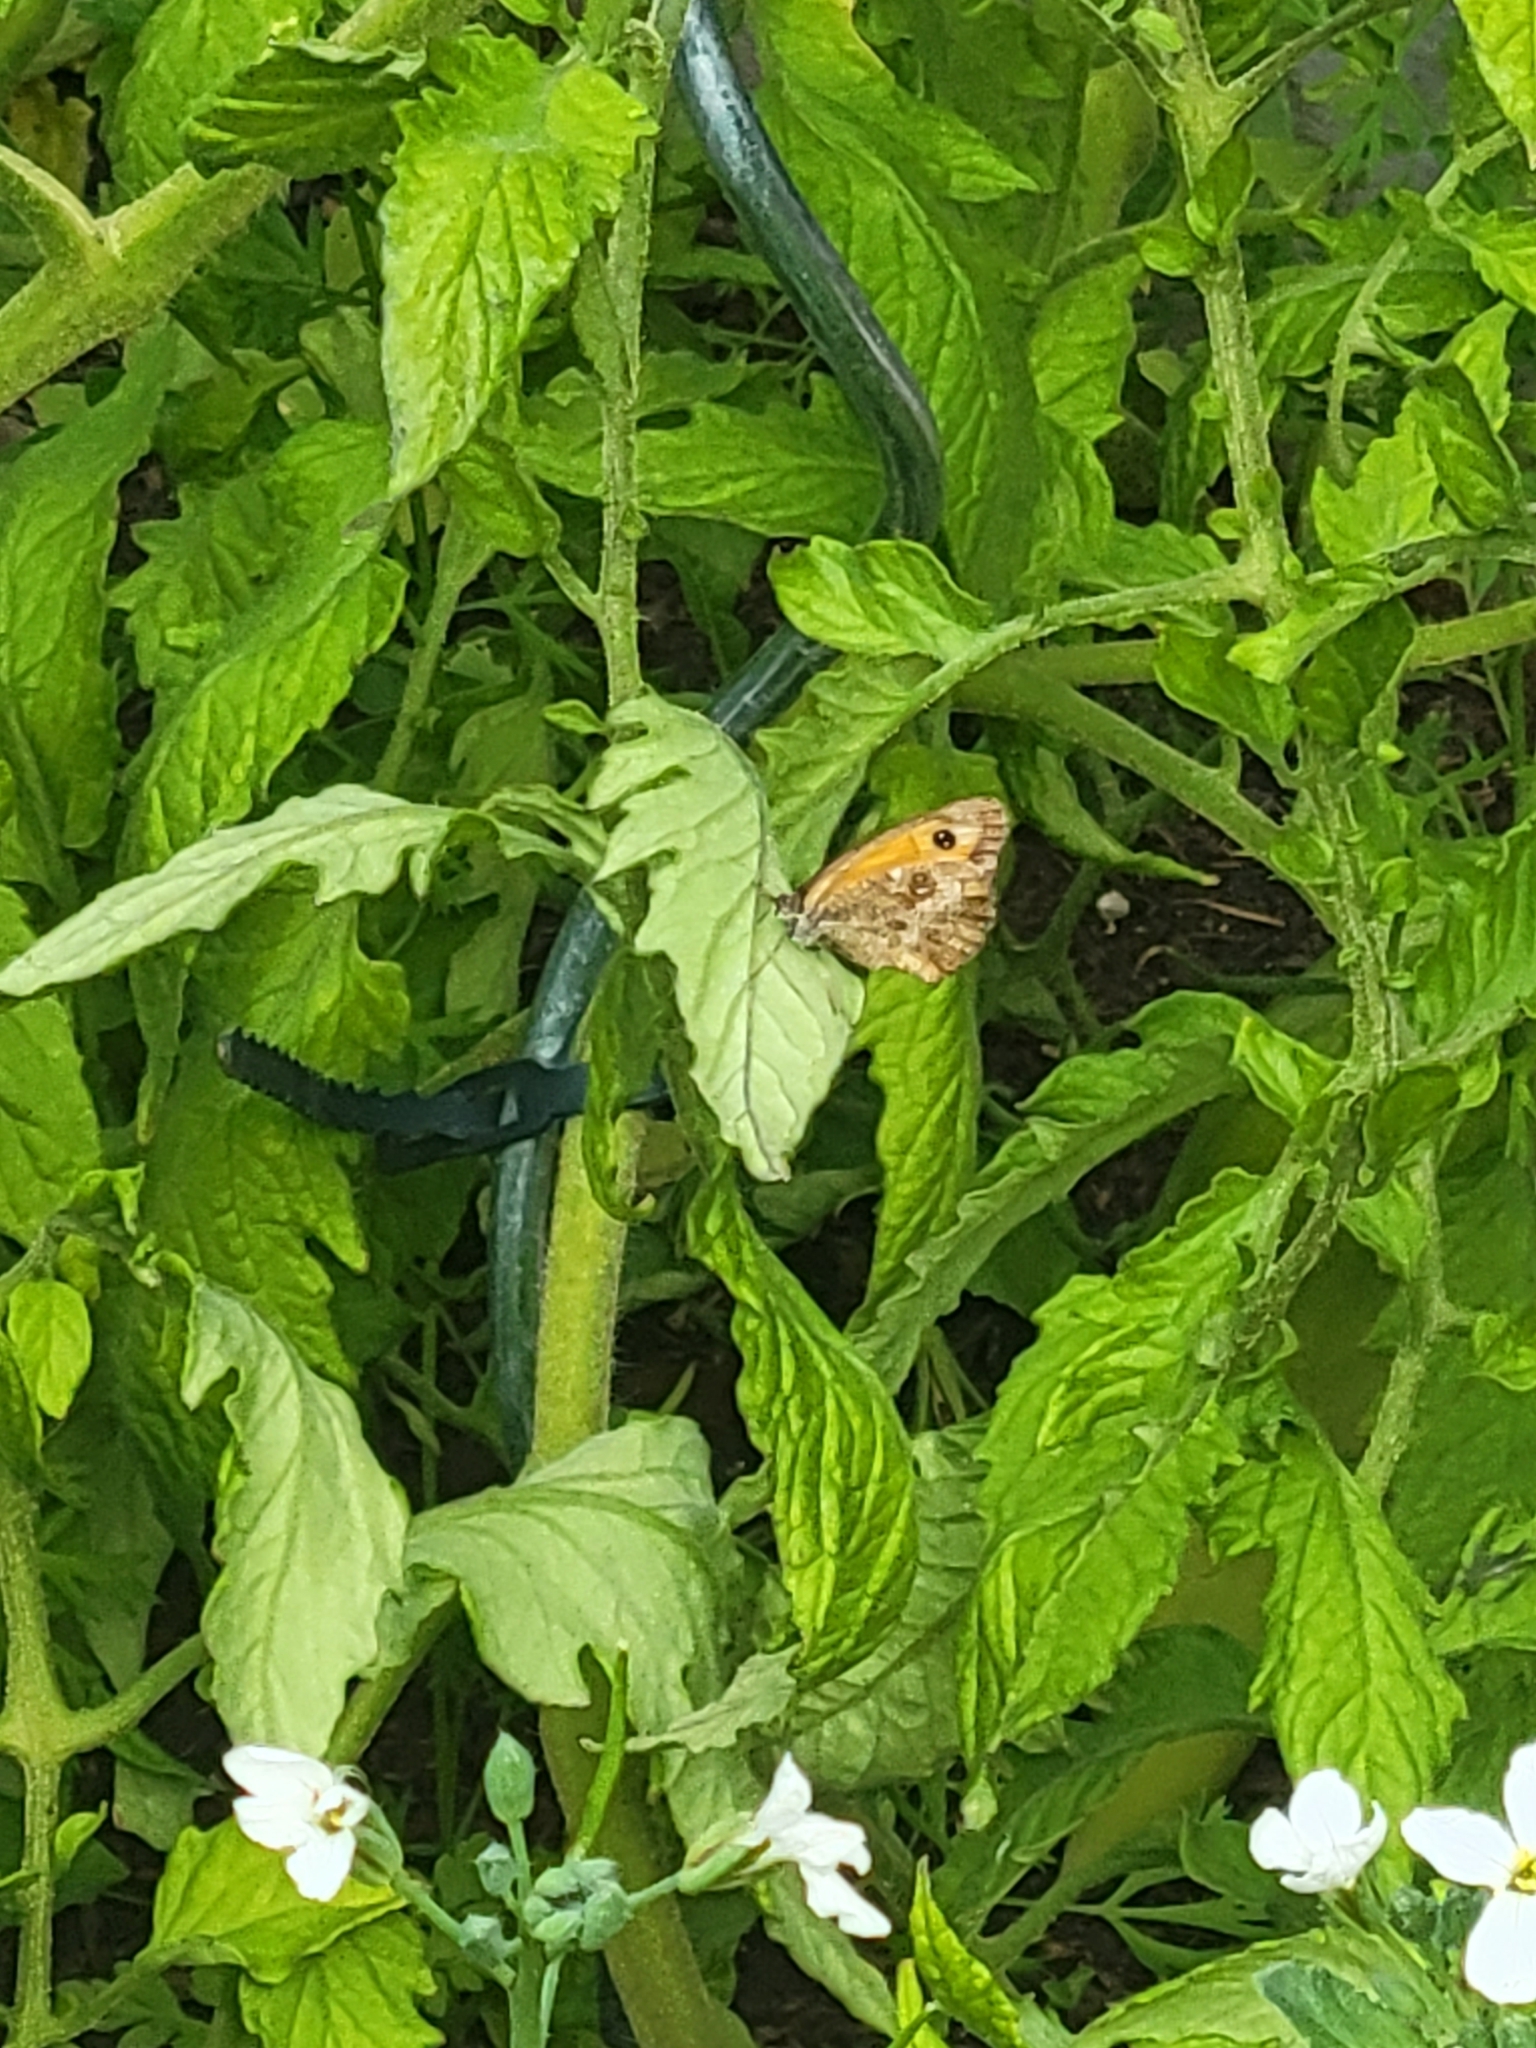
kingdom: Animalia
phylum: Arthropoda
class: Insecta
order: Lepidoptera
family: Nymphalidae
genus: Pyronia
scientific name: Pyronia tithonus
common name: Gatekeeper
